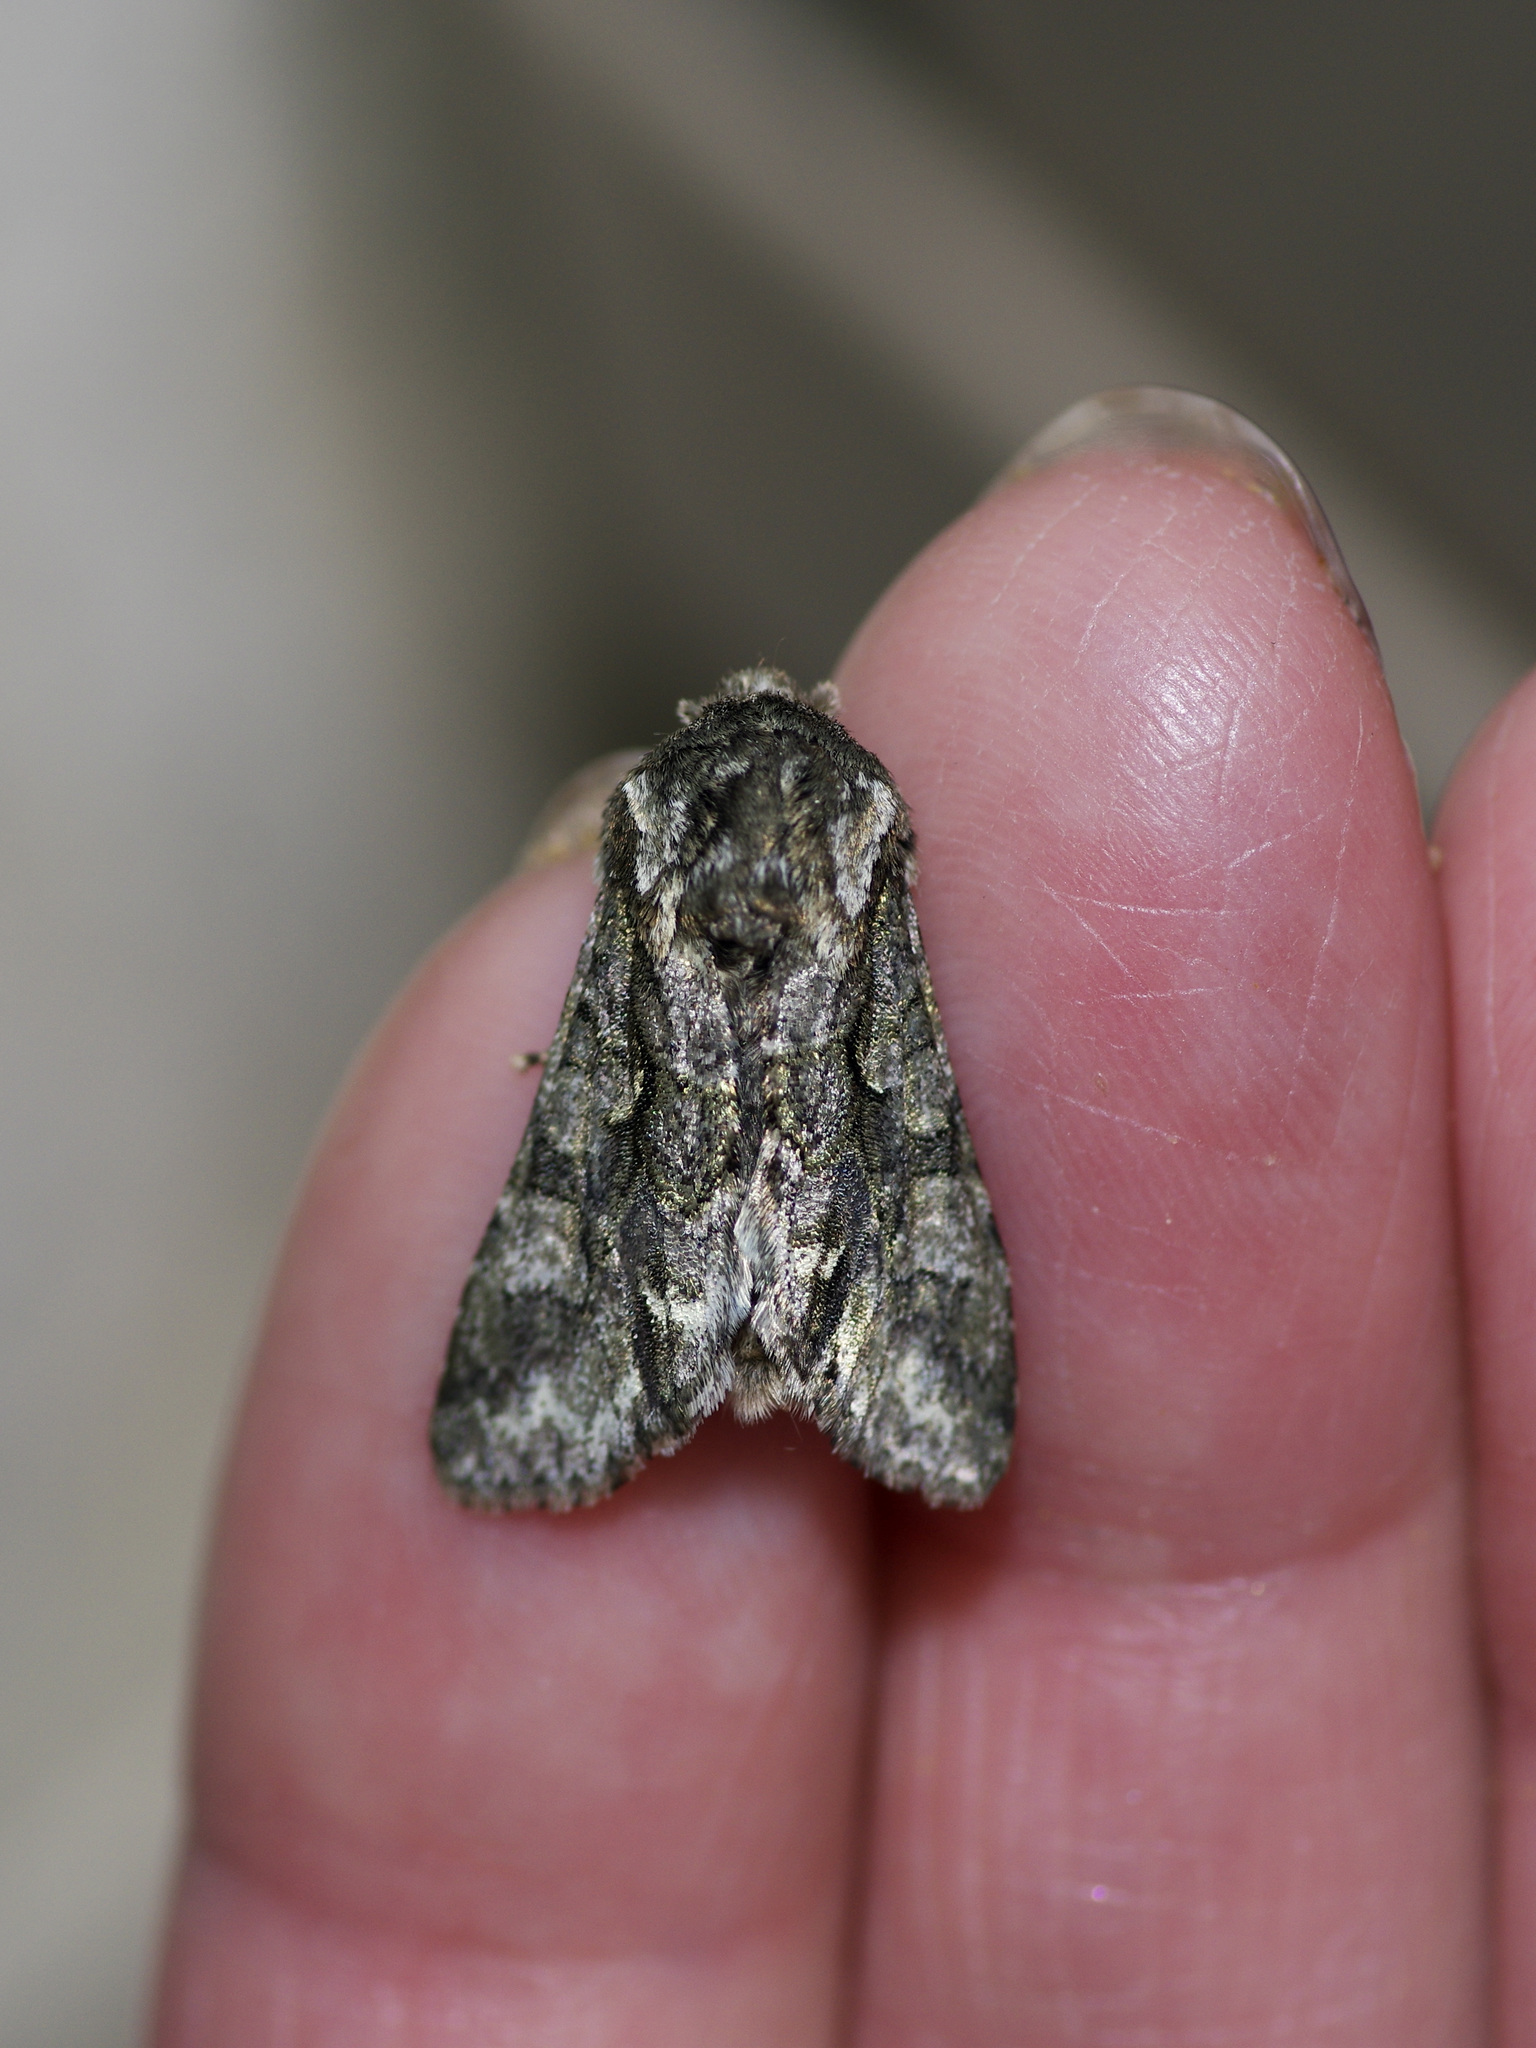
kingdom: Animalia
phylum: Arthropoda
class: Insecta
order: Lepidoptera
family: Noctuidae
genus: Psaphida
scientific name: Psaphida resumens
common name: Figure-eight sallow
